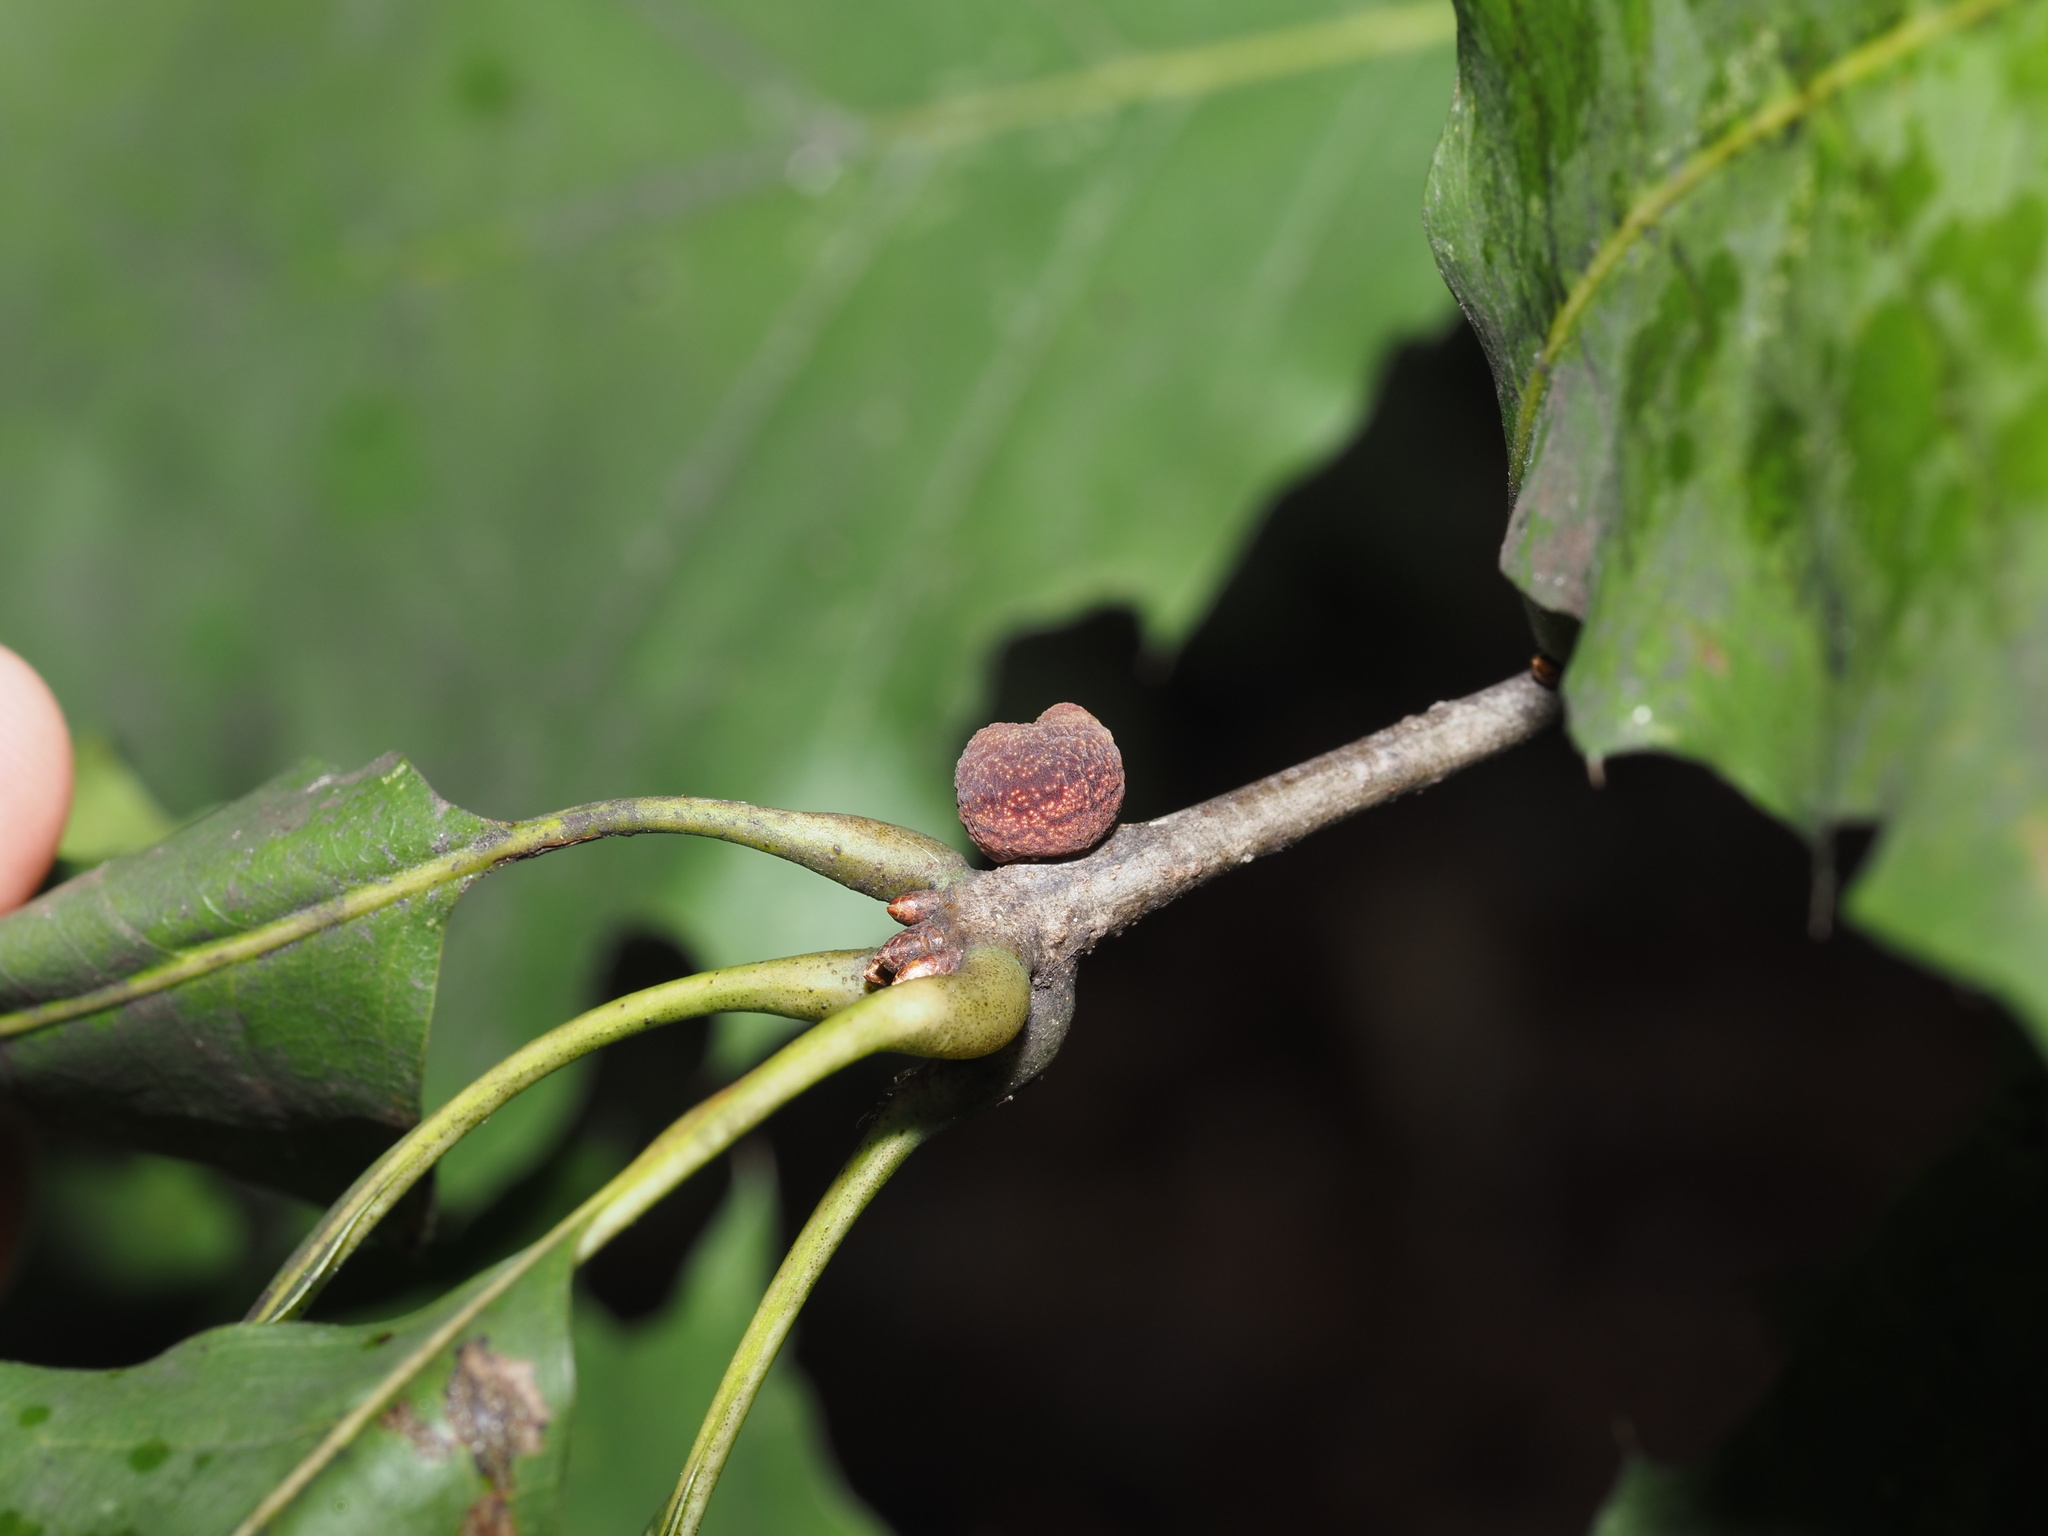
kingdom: Animalia
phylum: Arthropoda
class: Insecta
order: Hymenoptera
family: Cynipidae
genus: Kokkocynips
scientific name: Kokkocynips imbricariae
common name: Banded bullet gall wasp
